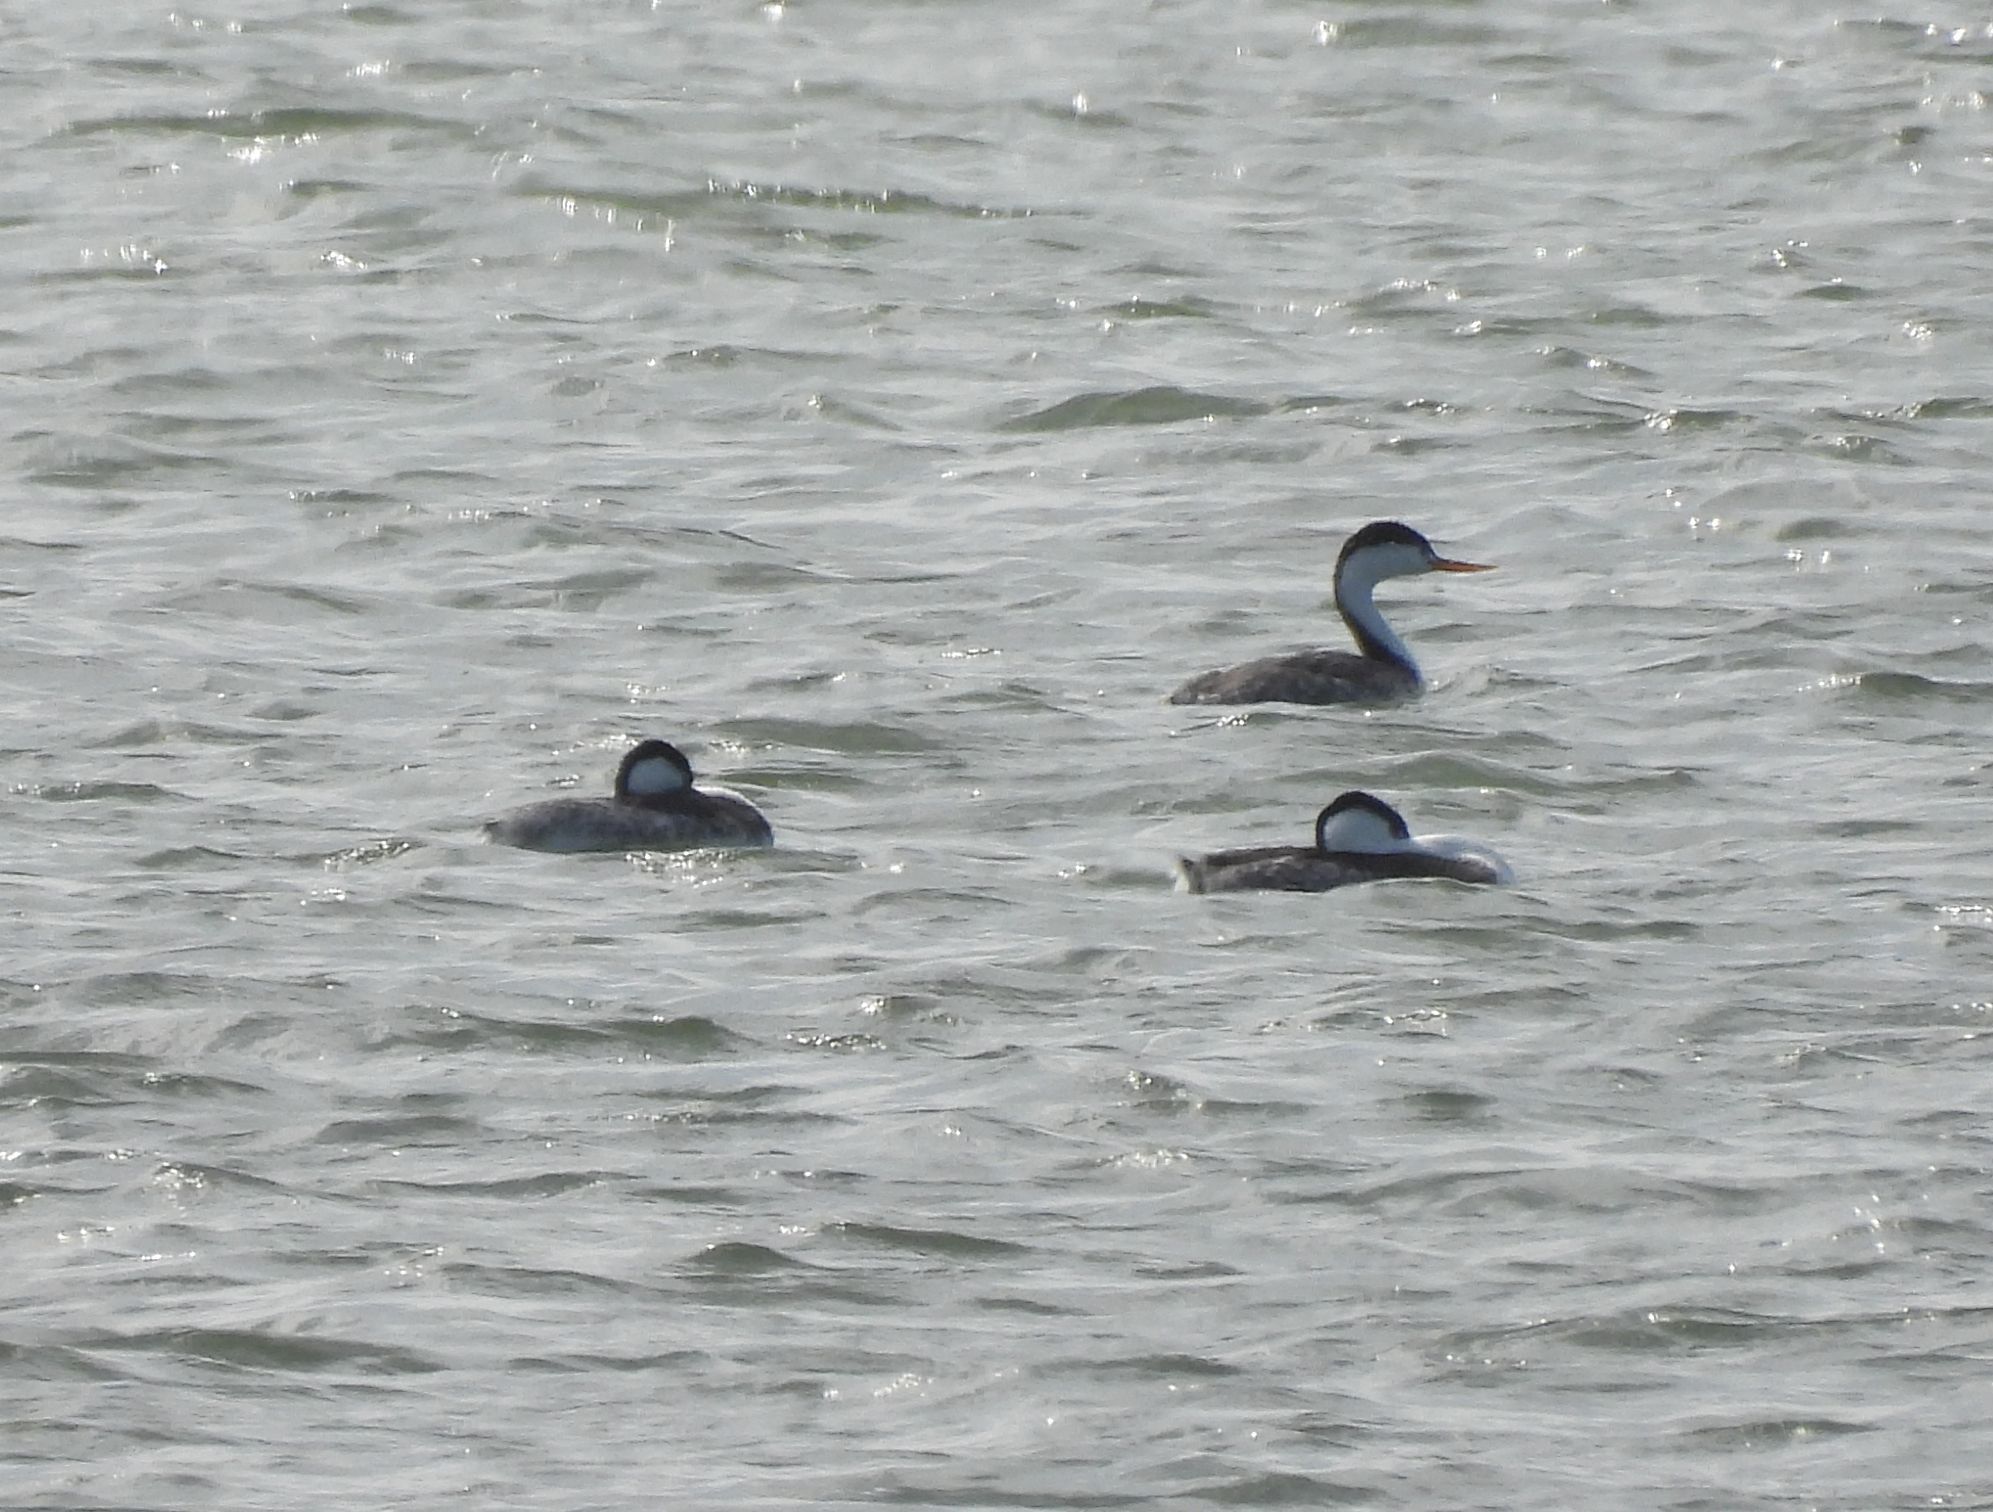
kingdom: Animalia
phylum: Chordata
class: Aves
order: Podicipediformes
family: Podicipedidae
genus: Aechmophorus
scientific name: Aechmophorus clarkii
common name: Clark's grebe
